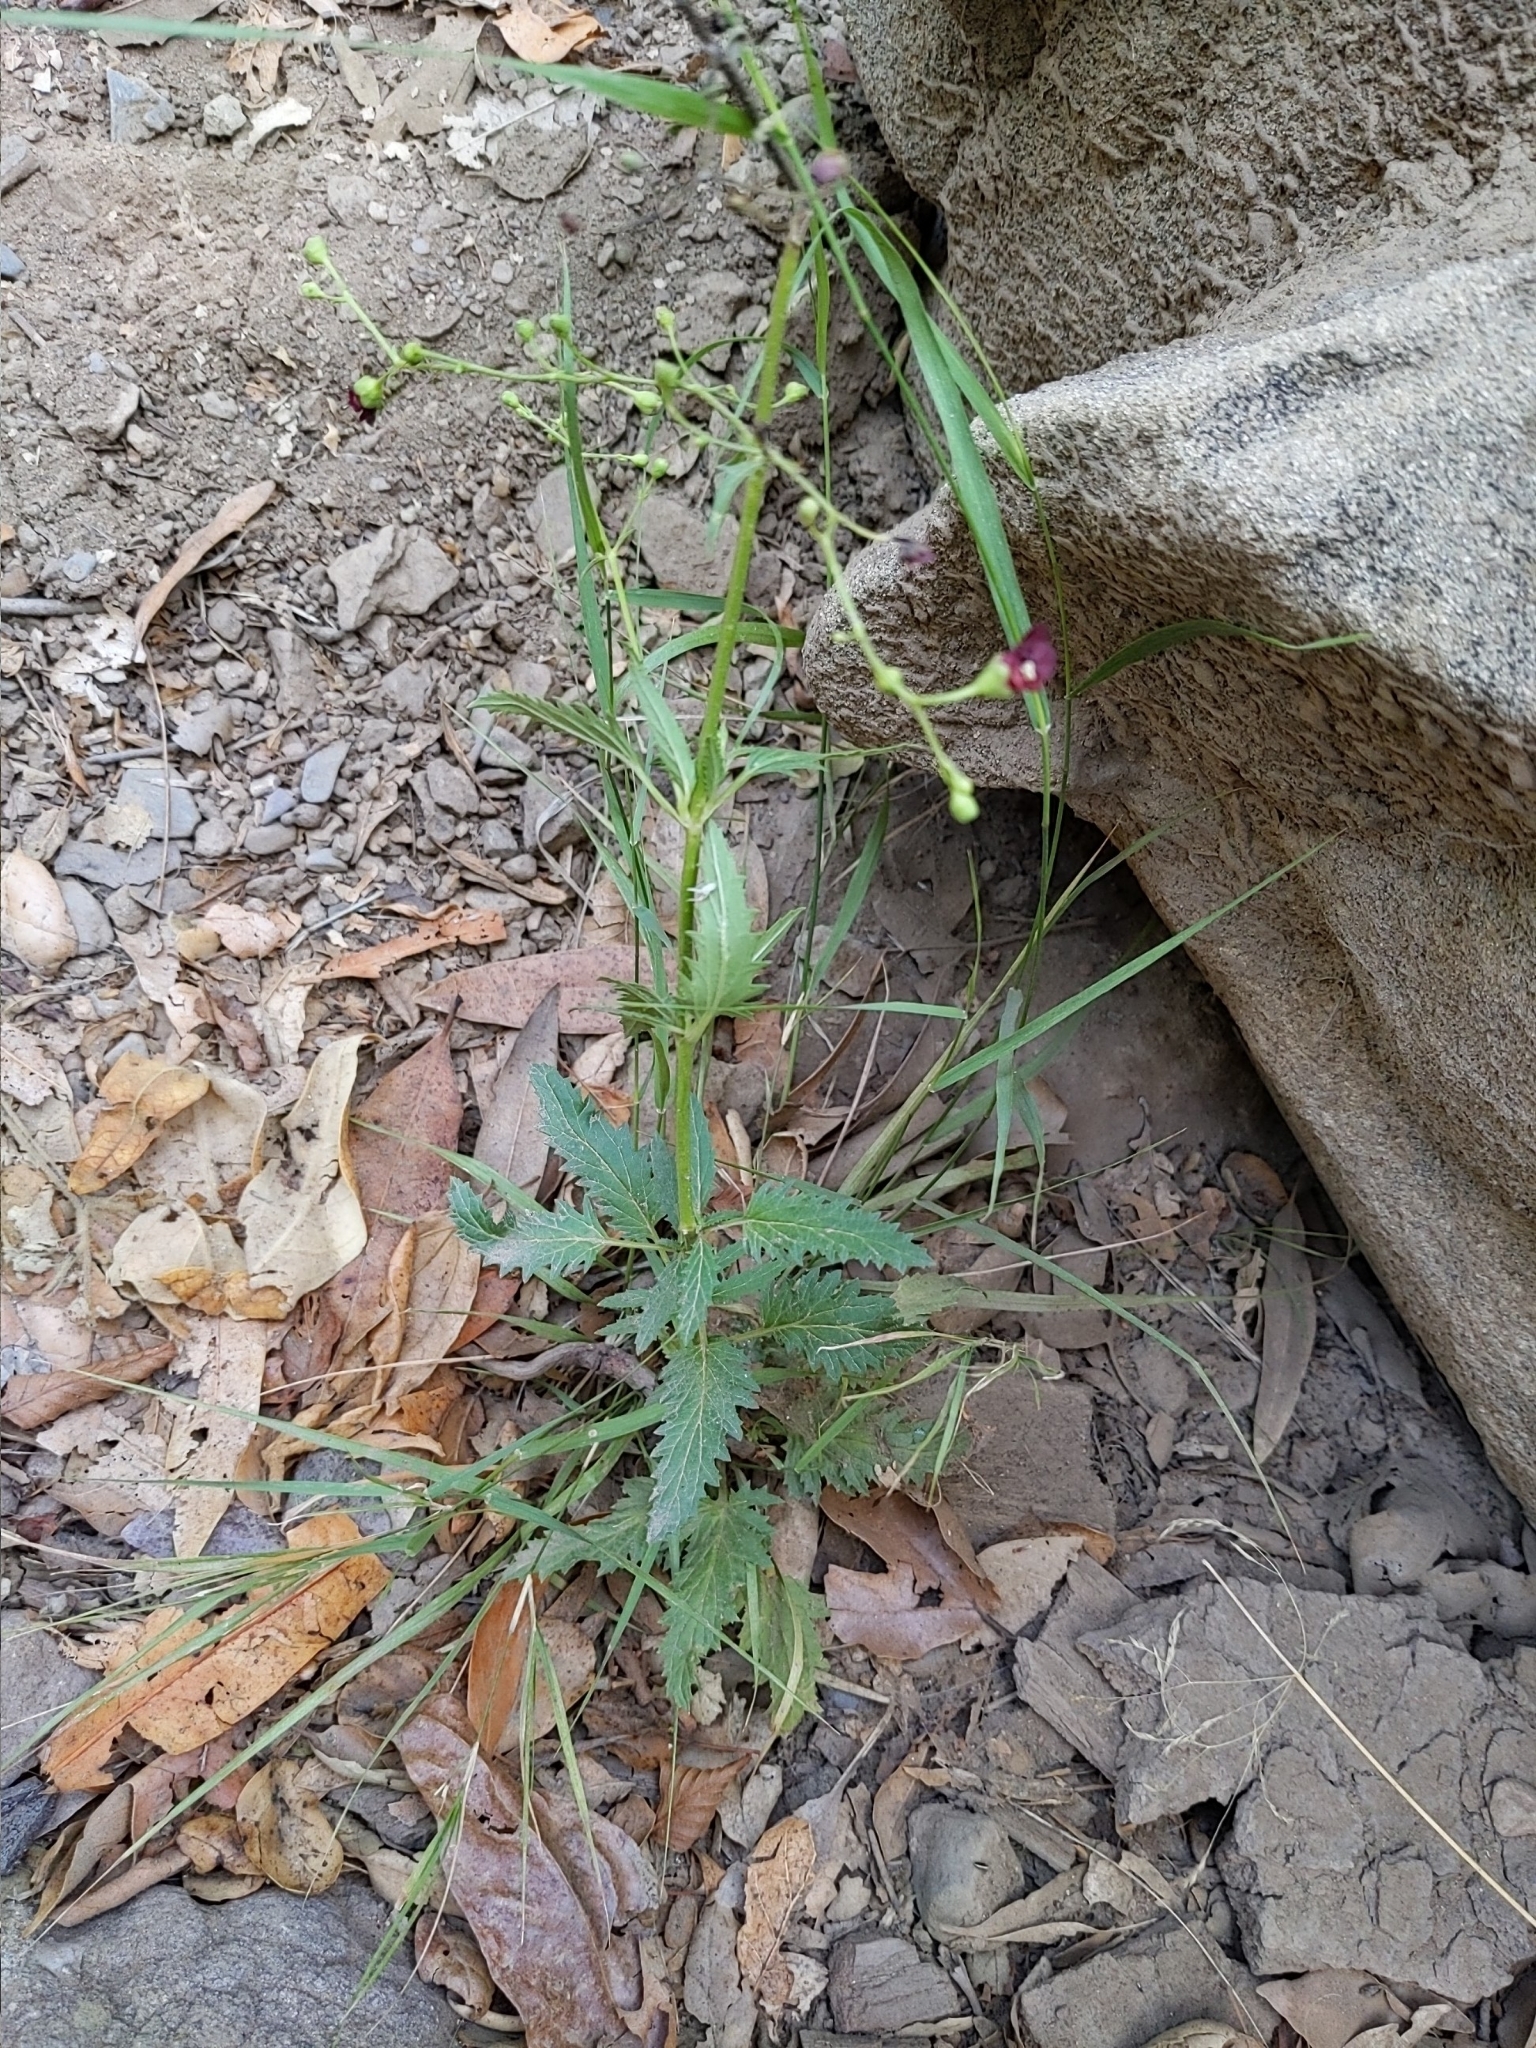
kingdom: Plantae
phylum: Tracheophyta
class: Magnoliopsida
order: Lamiales
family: Scrophulariaceae
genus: Scrophularia
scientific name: Scrophularia californica
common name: California figwort
